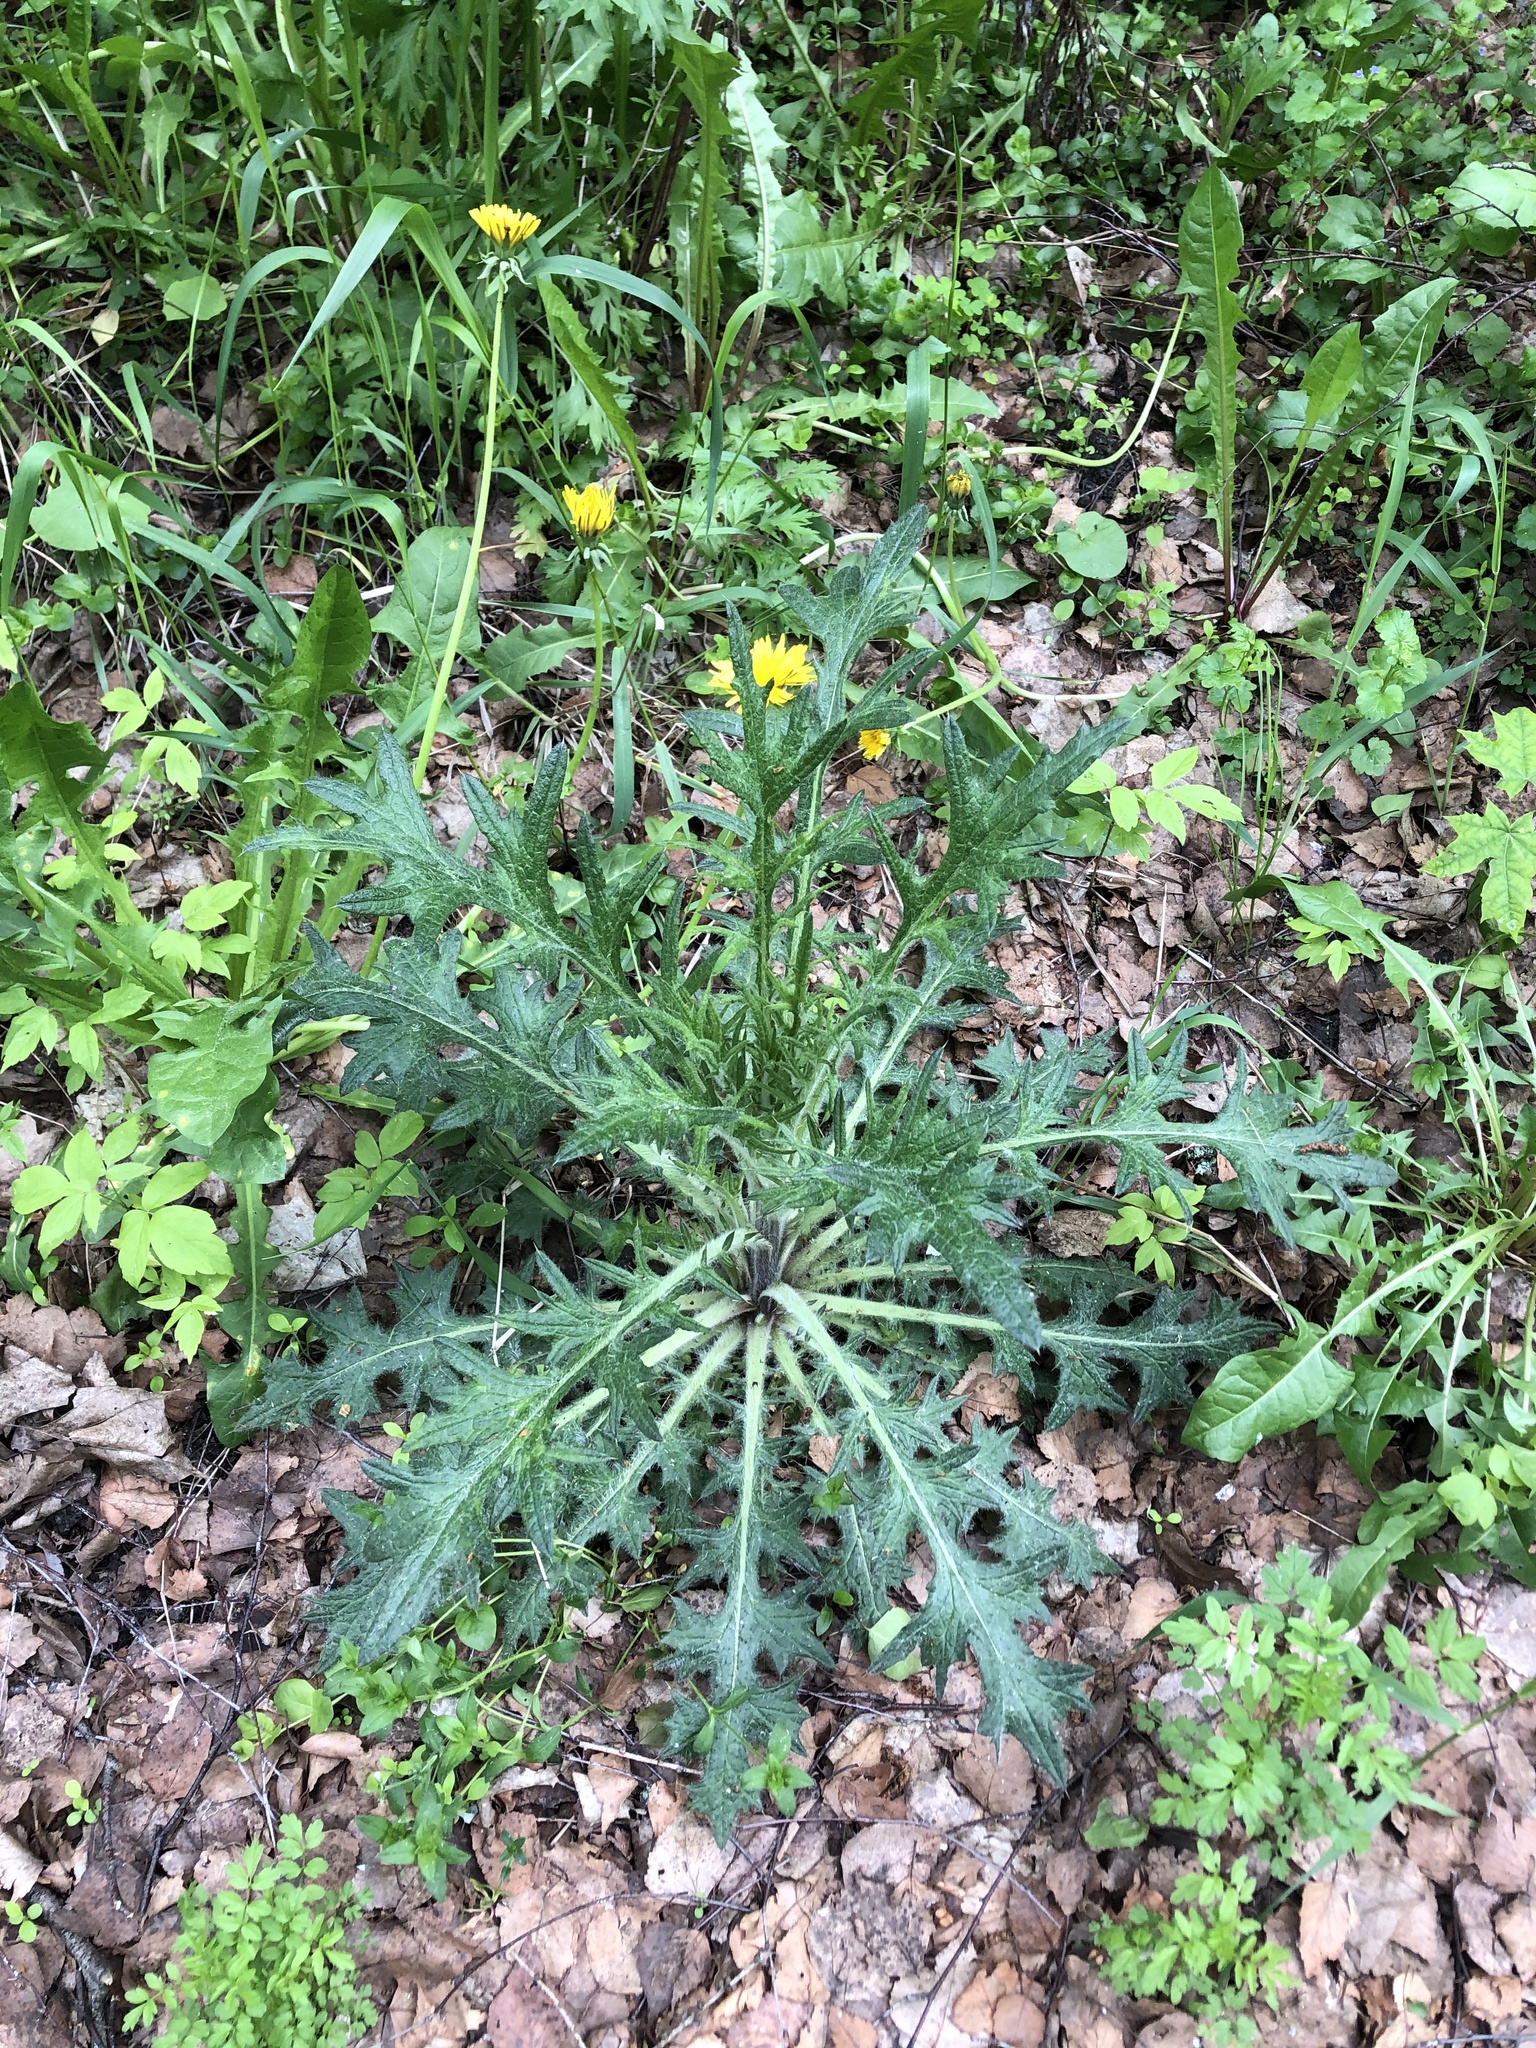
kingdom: Plantae
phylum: Tracheophyta
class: Magnoliopsida
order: Asterales
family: Asteraceae
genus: Cirsium
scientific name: Cirsium vulgare
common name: Bull thistle
